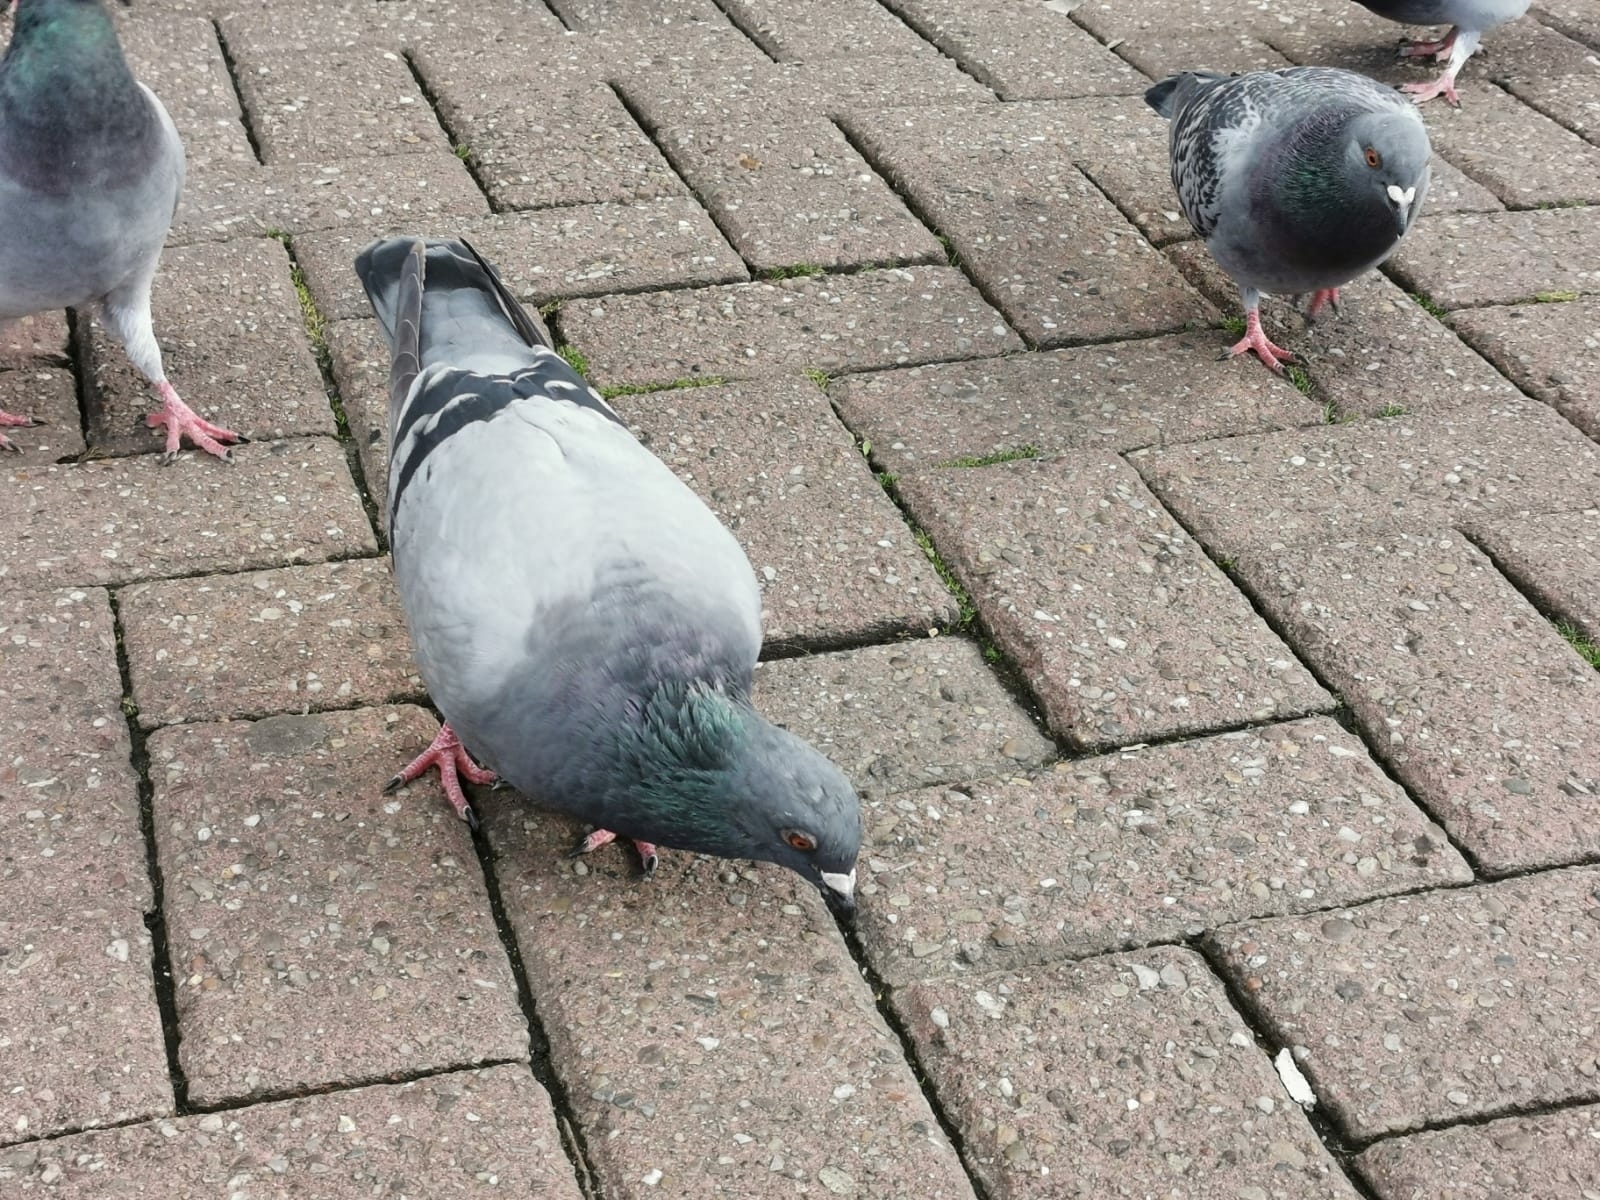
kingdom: Animalia
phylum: Chordata
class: Aves
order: Columbiformes
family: Columbidae
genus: Columba
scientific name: Columba livia
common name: Rock pigeon
